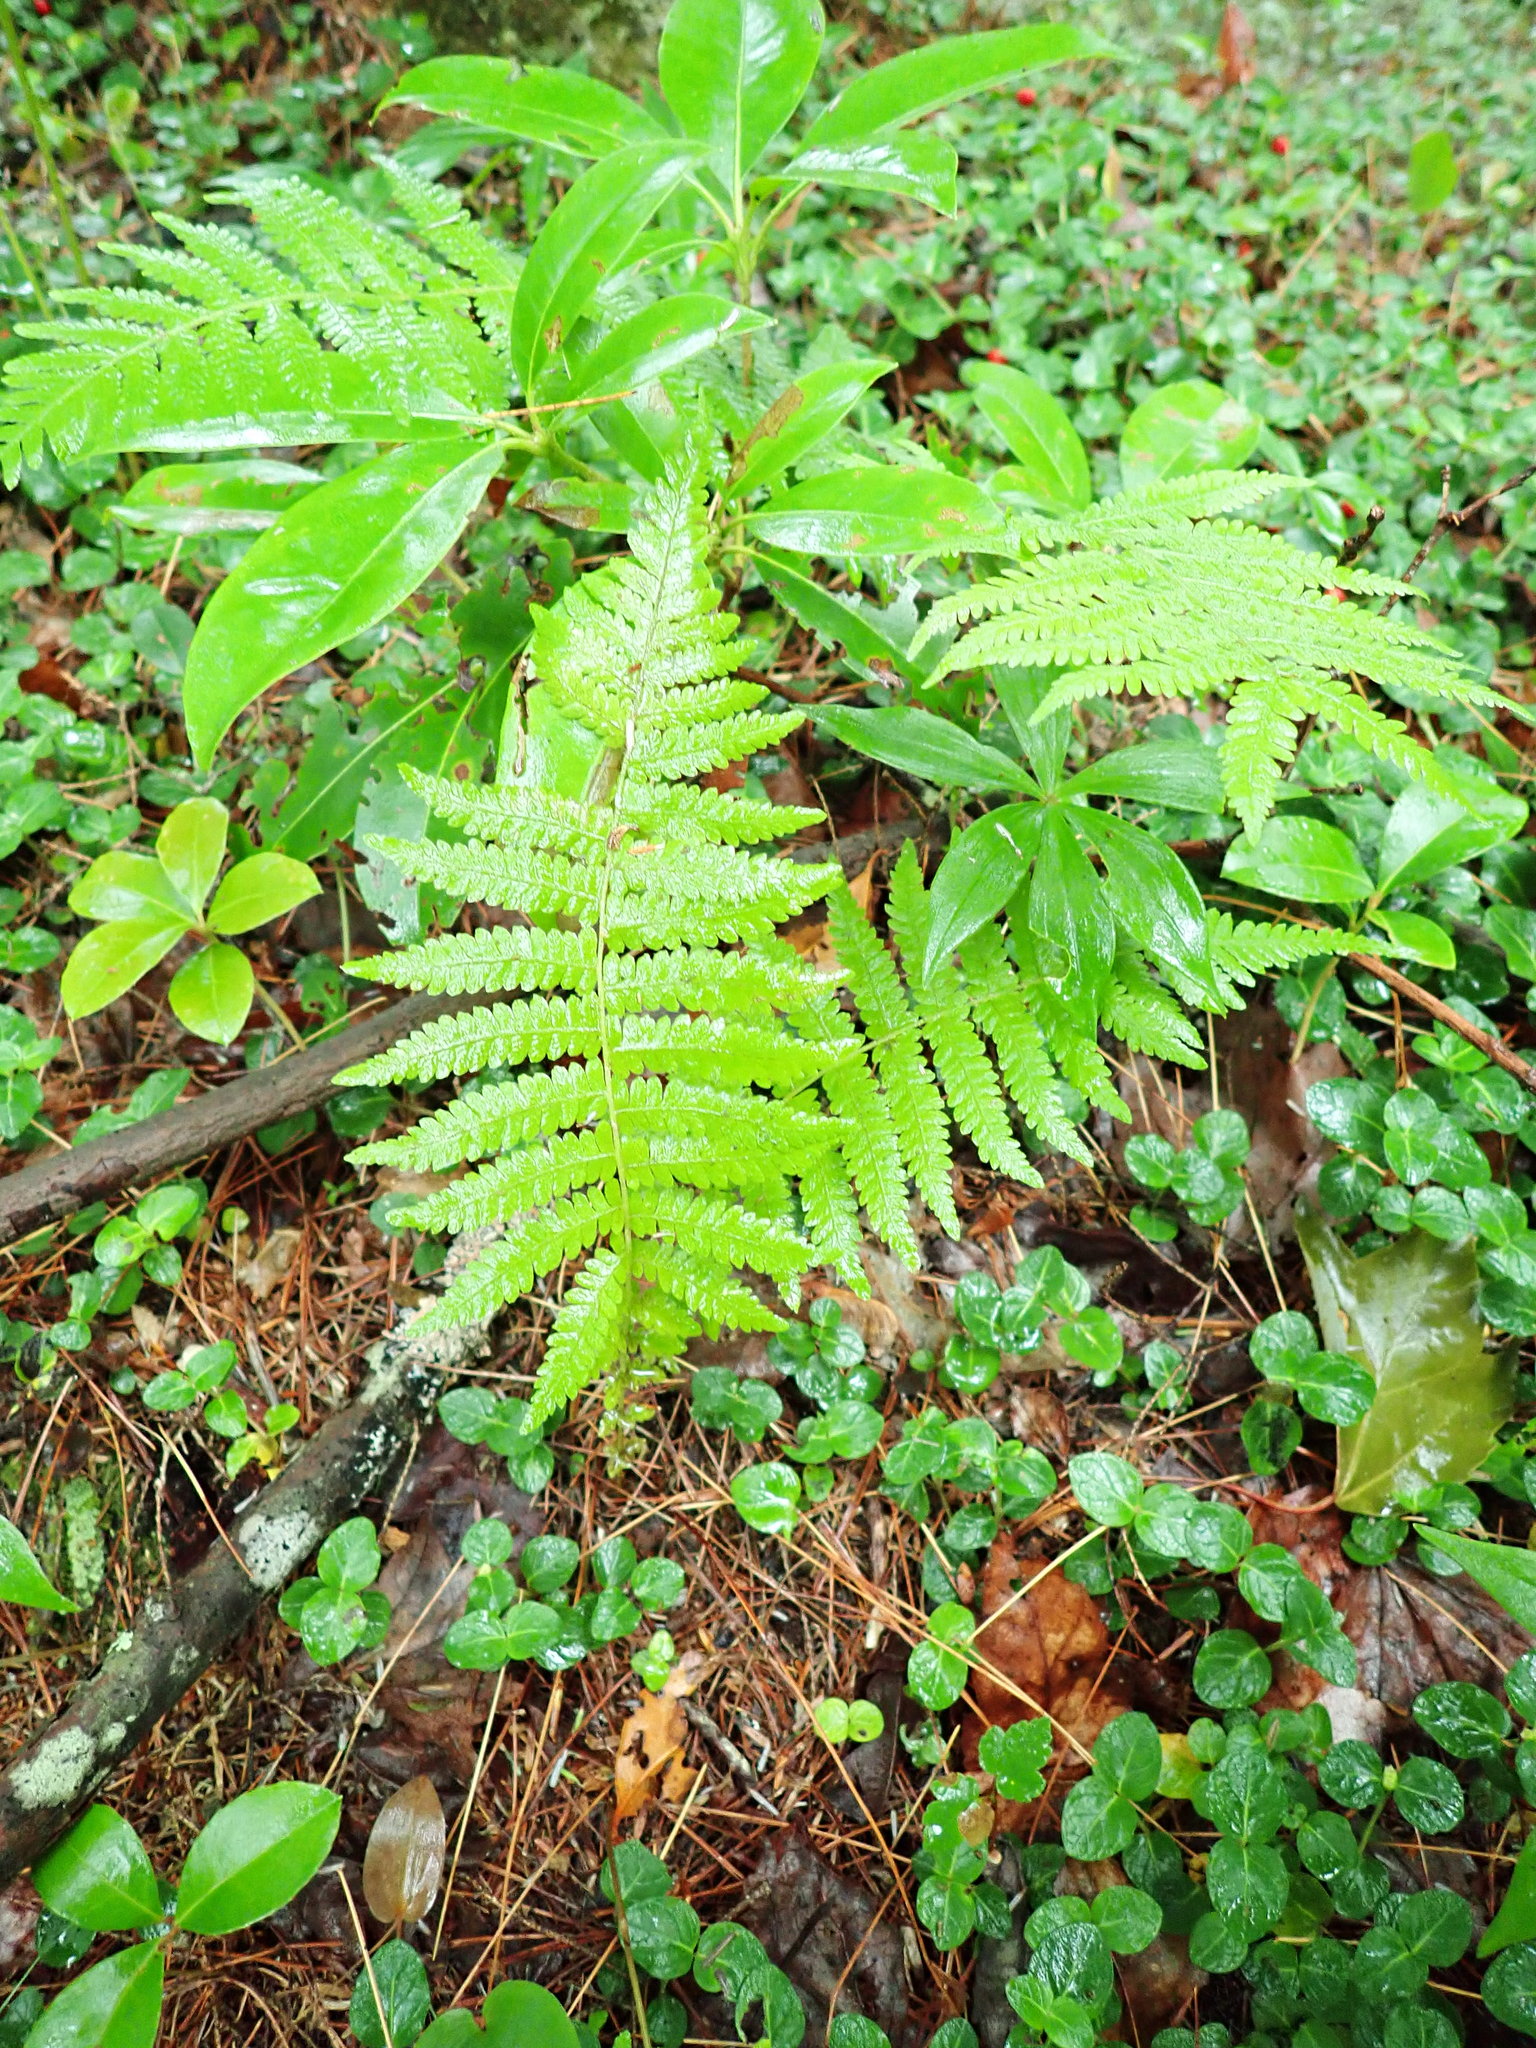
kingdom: Plantae
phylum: Tracheophyta
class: Polypodiopsida
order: Polypodiales
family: Thelypteridaceae
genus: Amauropelta
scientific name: Amauropelta noveboracensis
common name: New york fern
